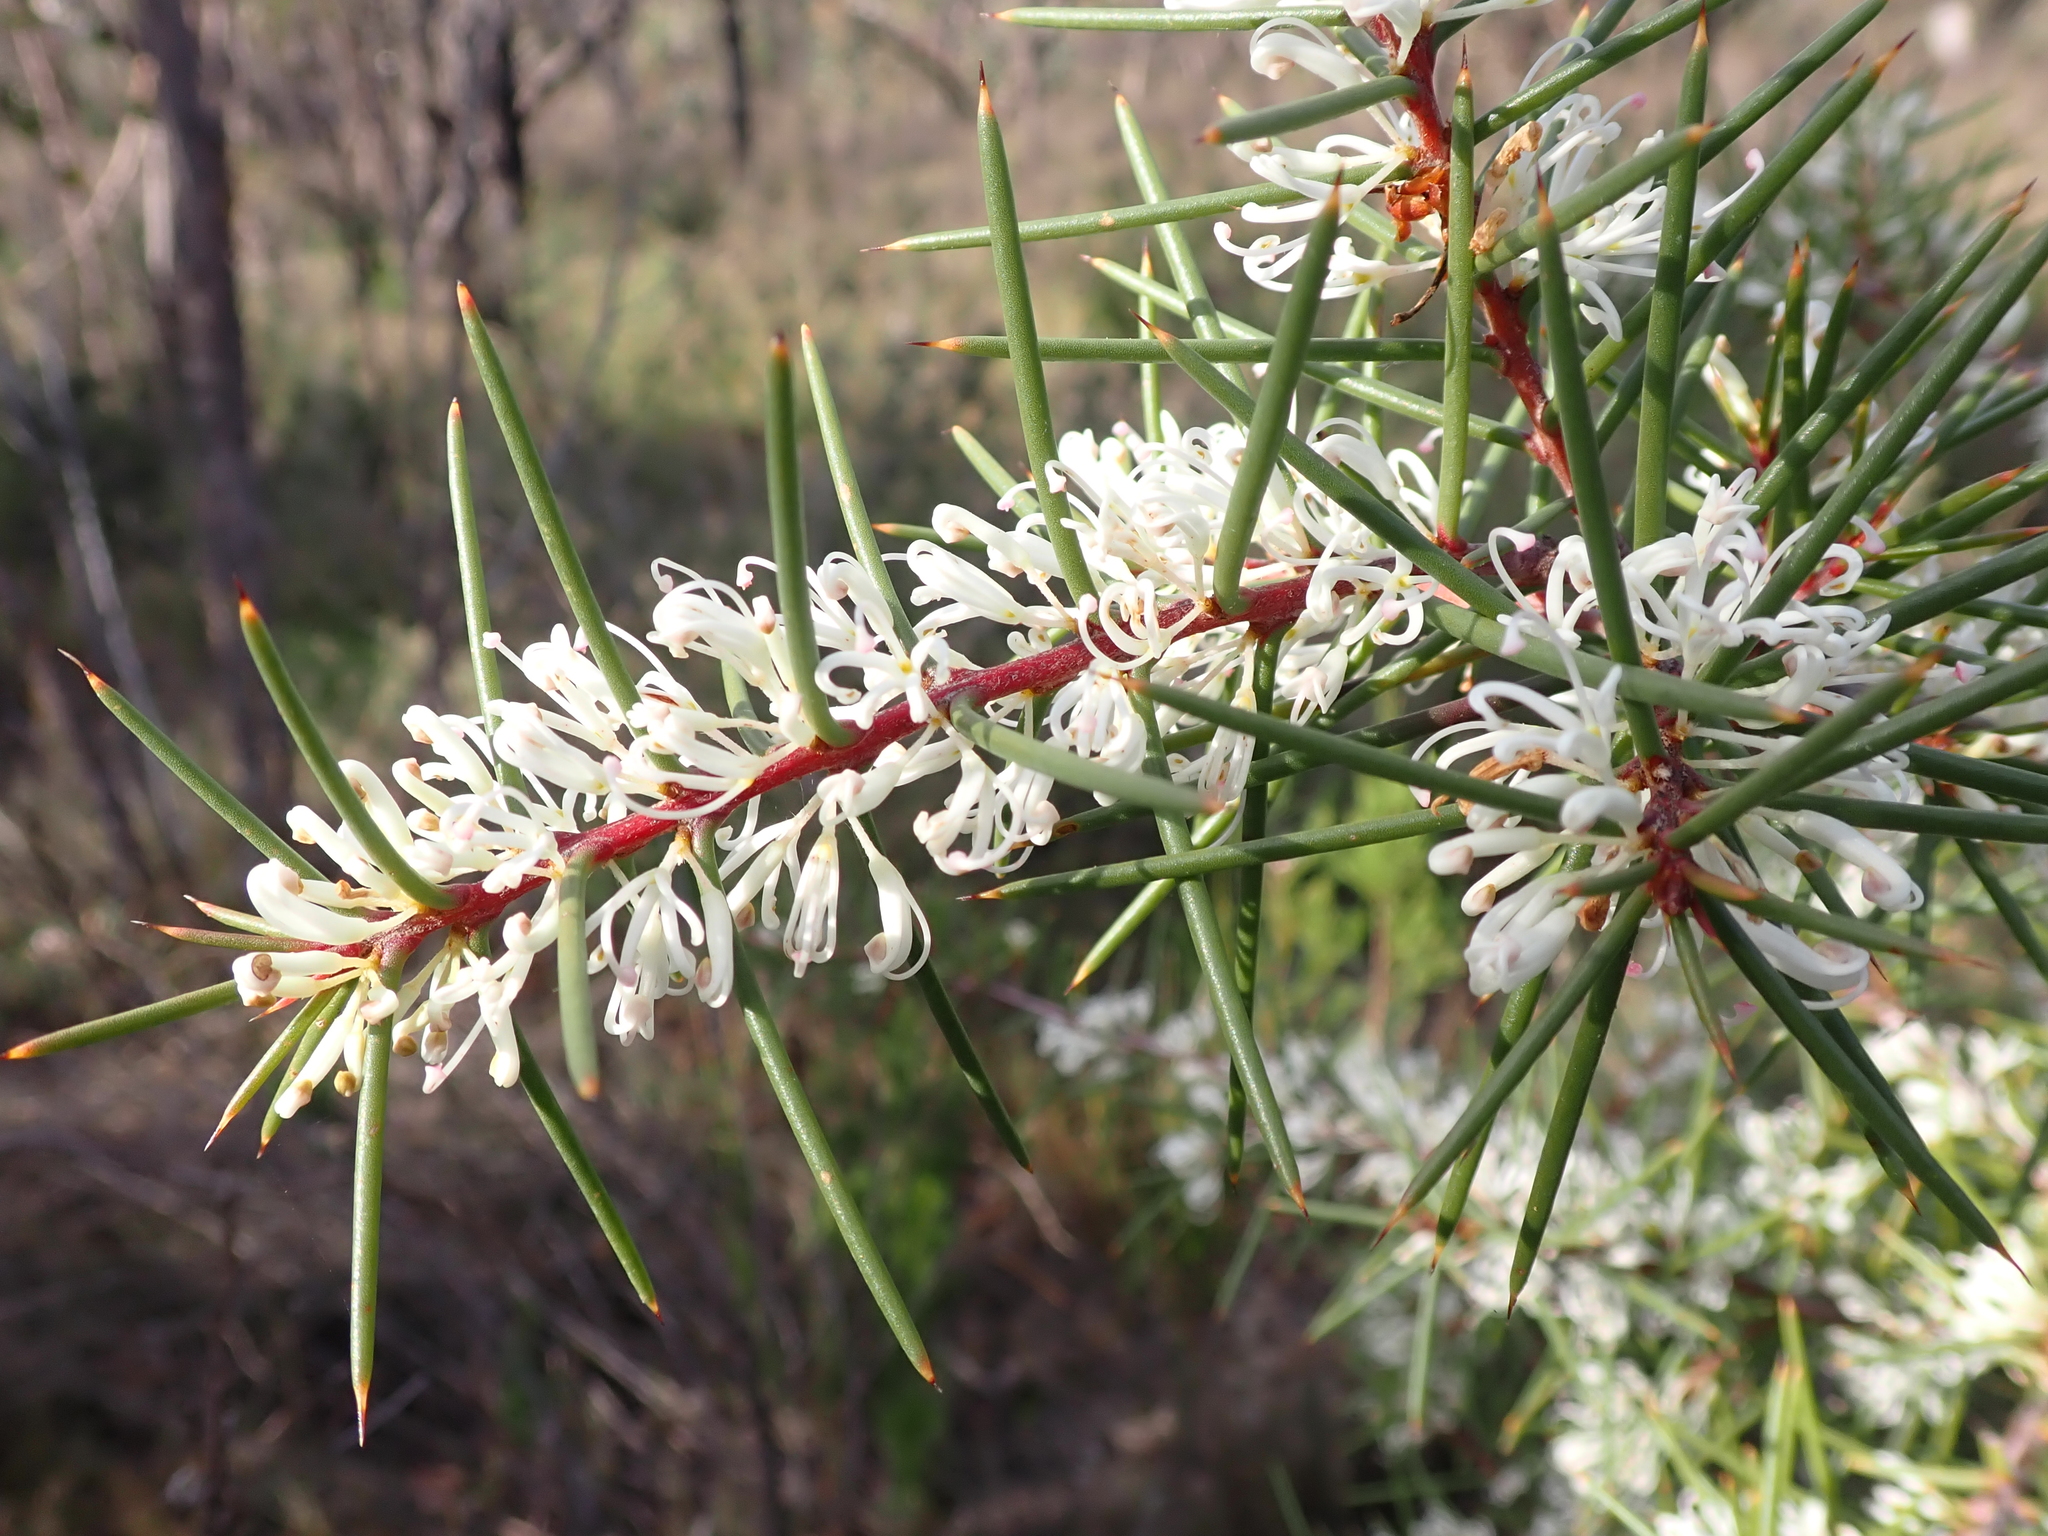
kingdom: Plantae
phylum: Tracheophyta
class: Magnoliopsida
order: Proteales
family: Proteaceae
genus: Hakea
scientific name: Hakea decurrens
